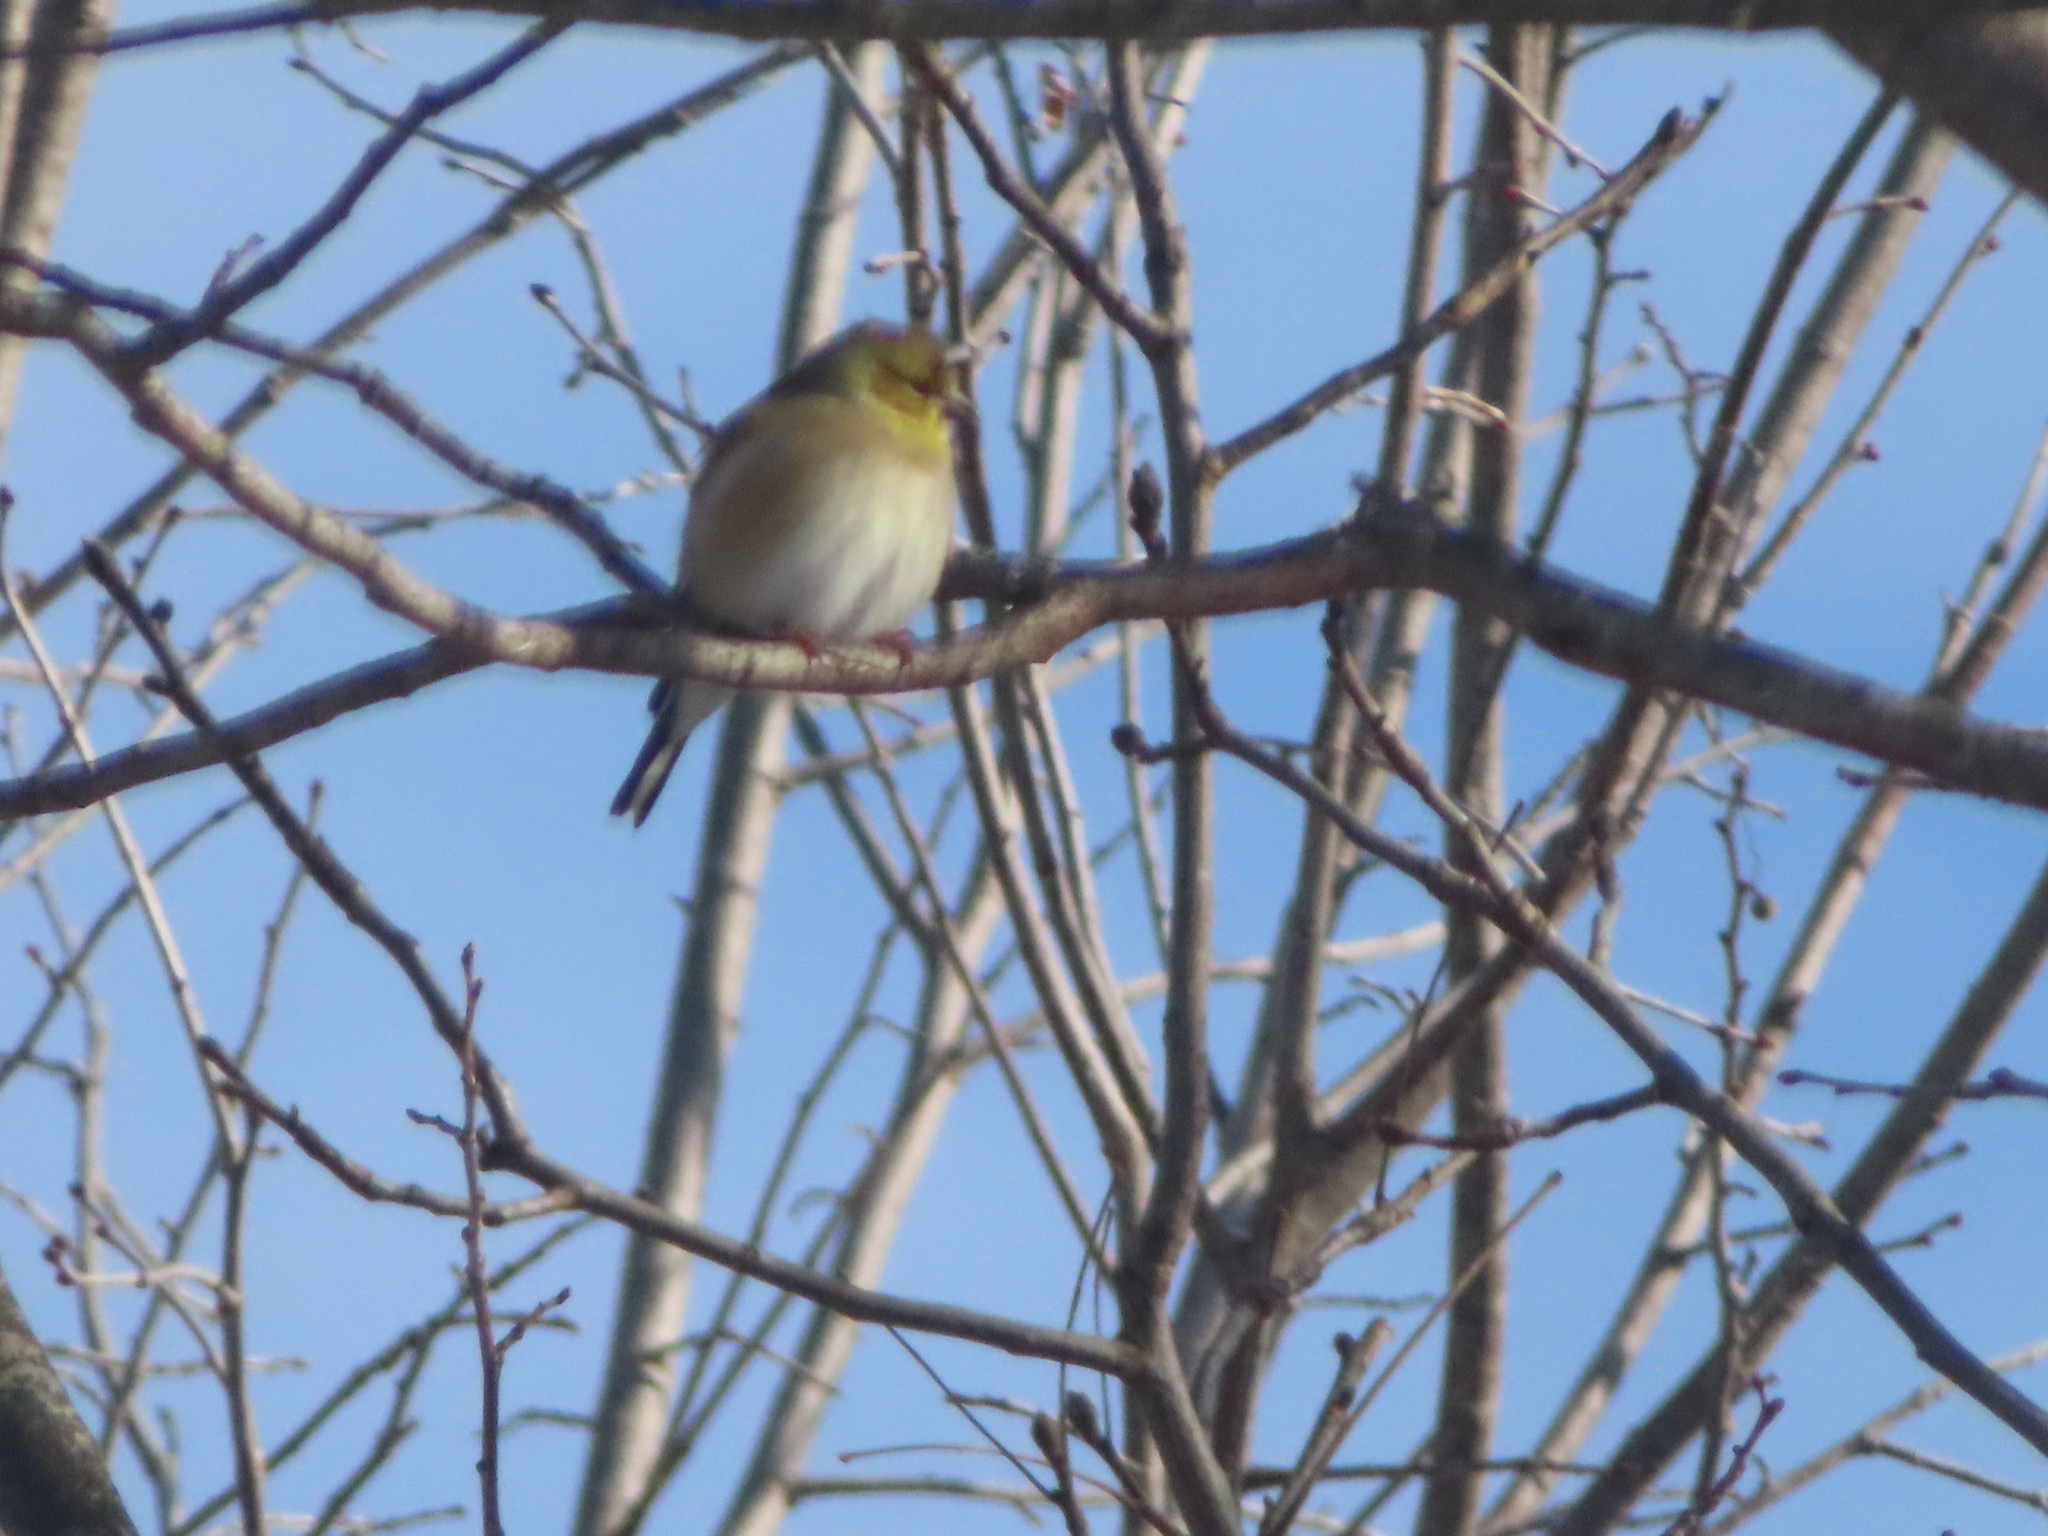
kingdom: Animalia
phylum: Chordata
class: Aves
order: Passeriformes
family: Fringillidae
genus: Spinus
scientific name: Spinus tristis
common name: American goldfinch
